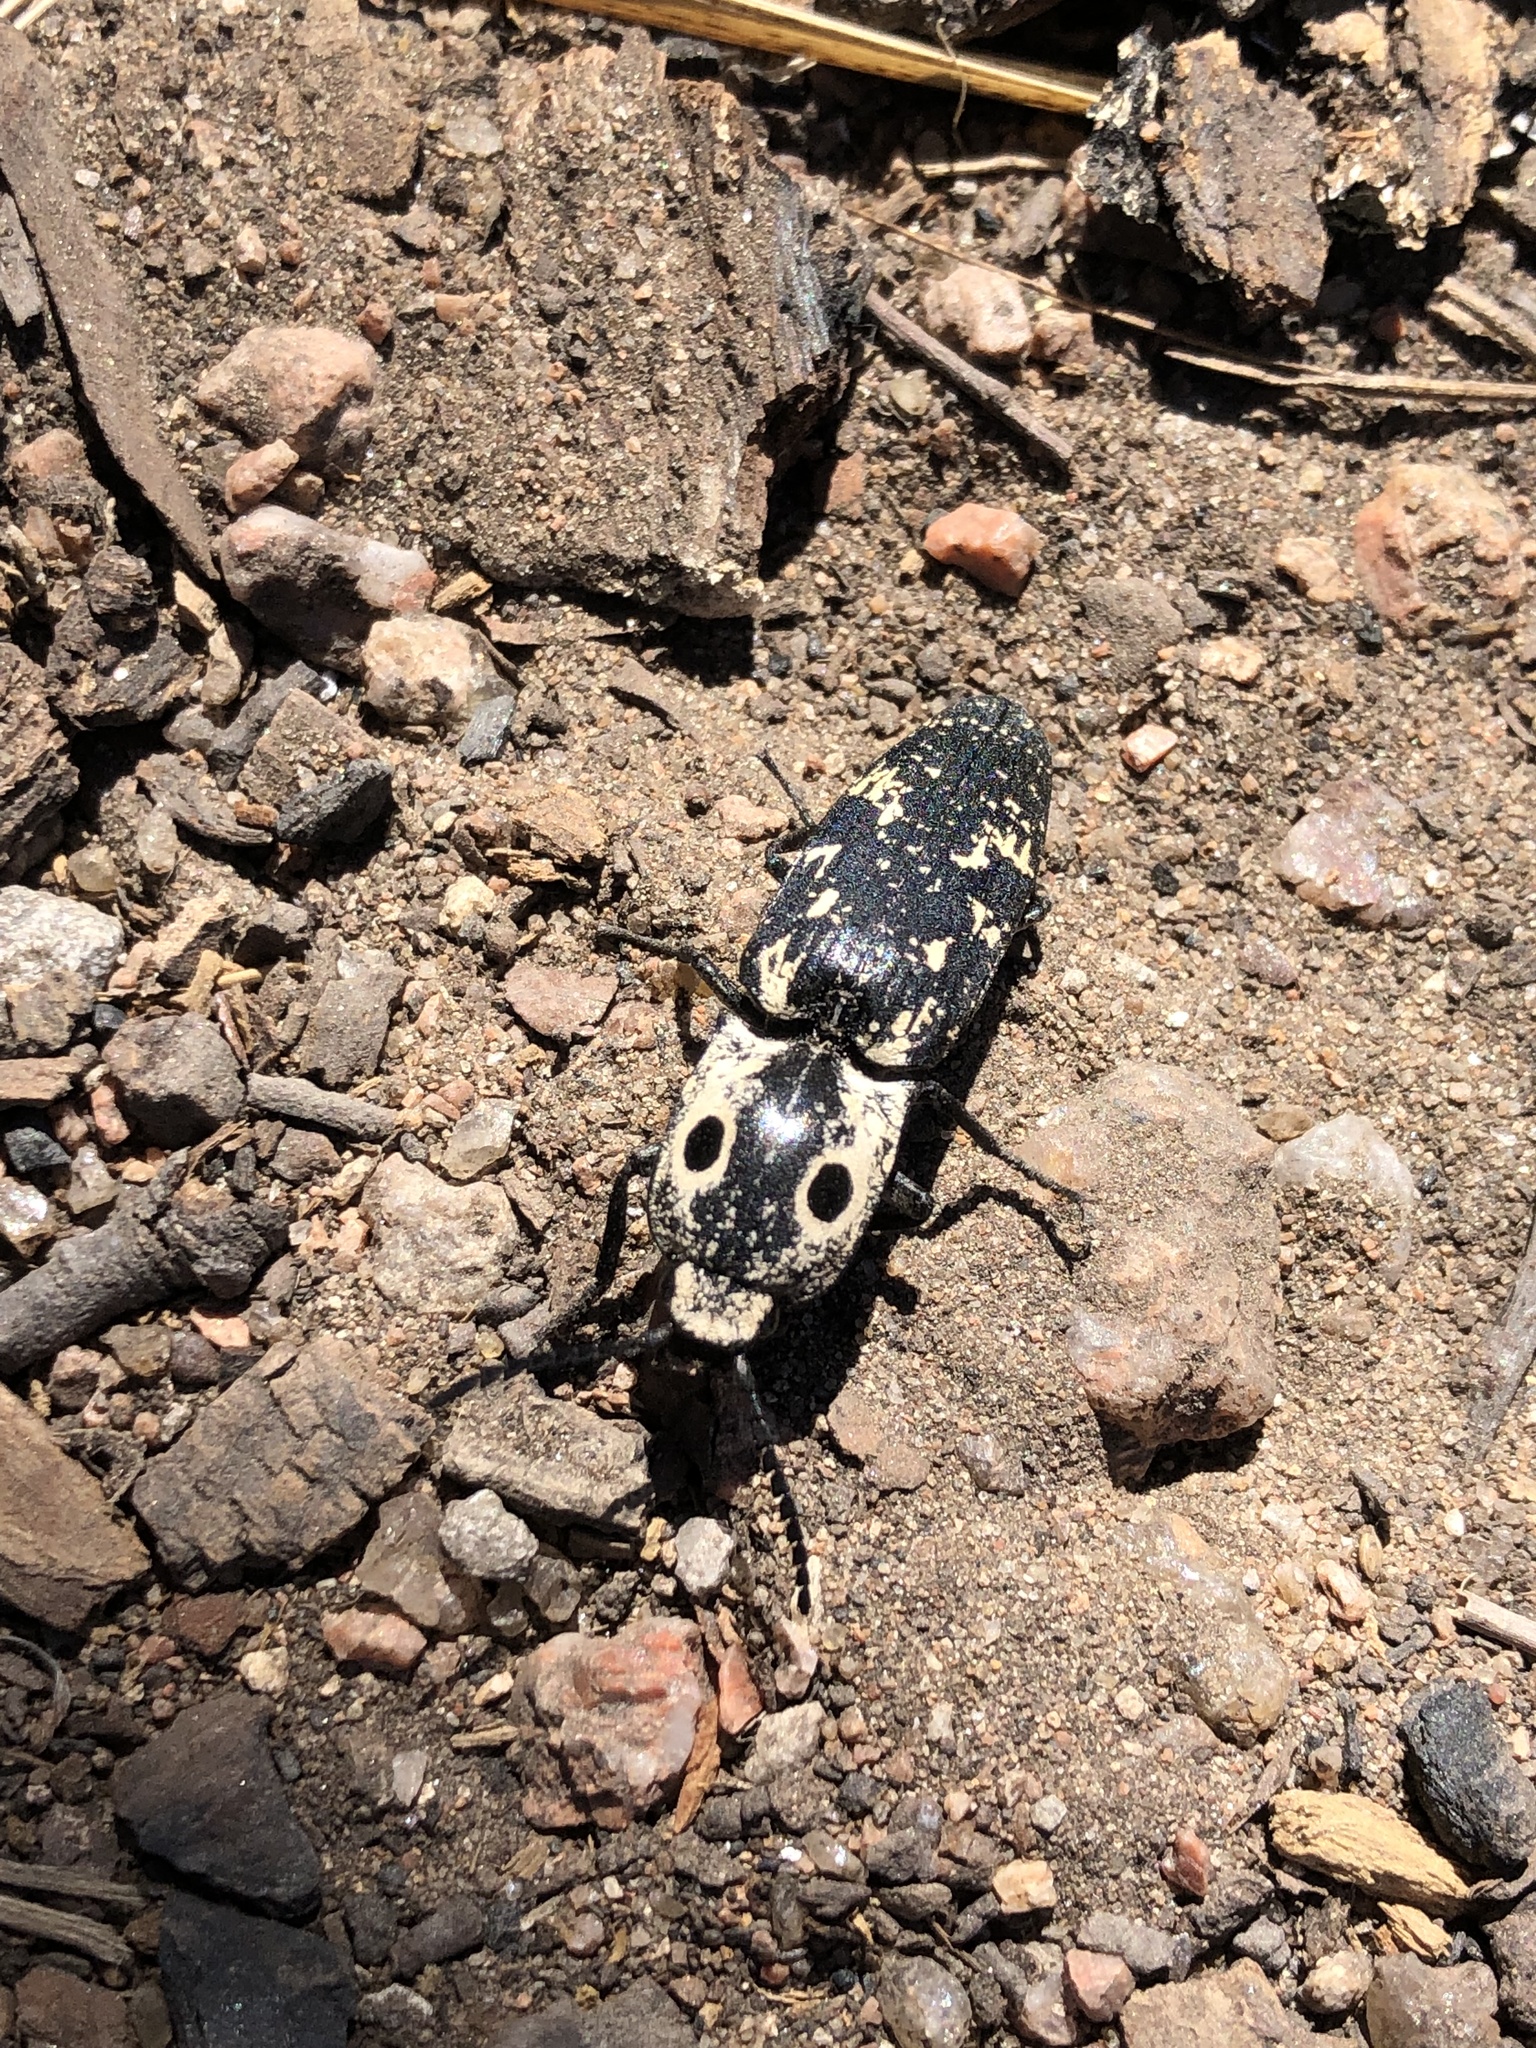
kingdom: Animalia
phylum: Arthropoda
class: Insecta
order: Coleoptera
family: Elateridae
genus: Alaus
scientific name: Alaus
